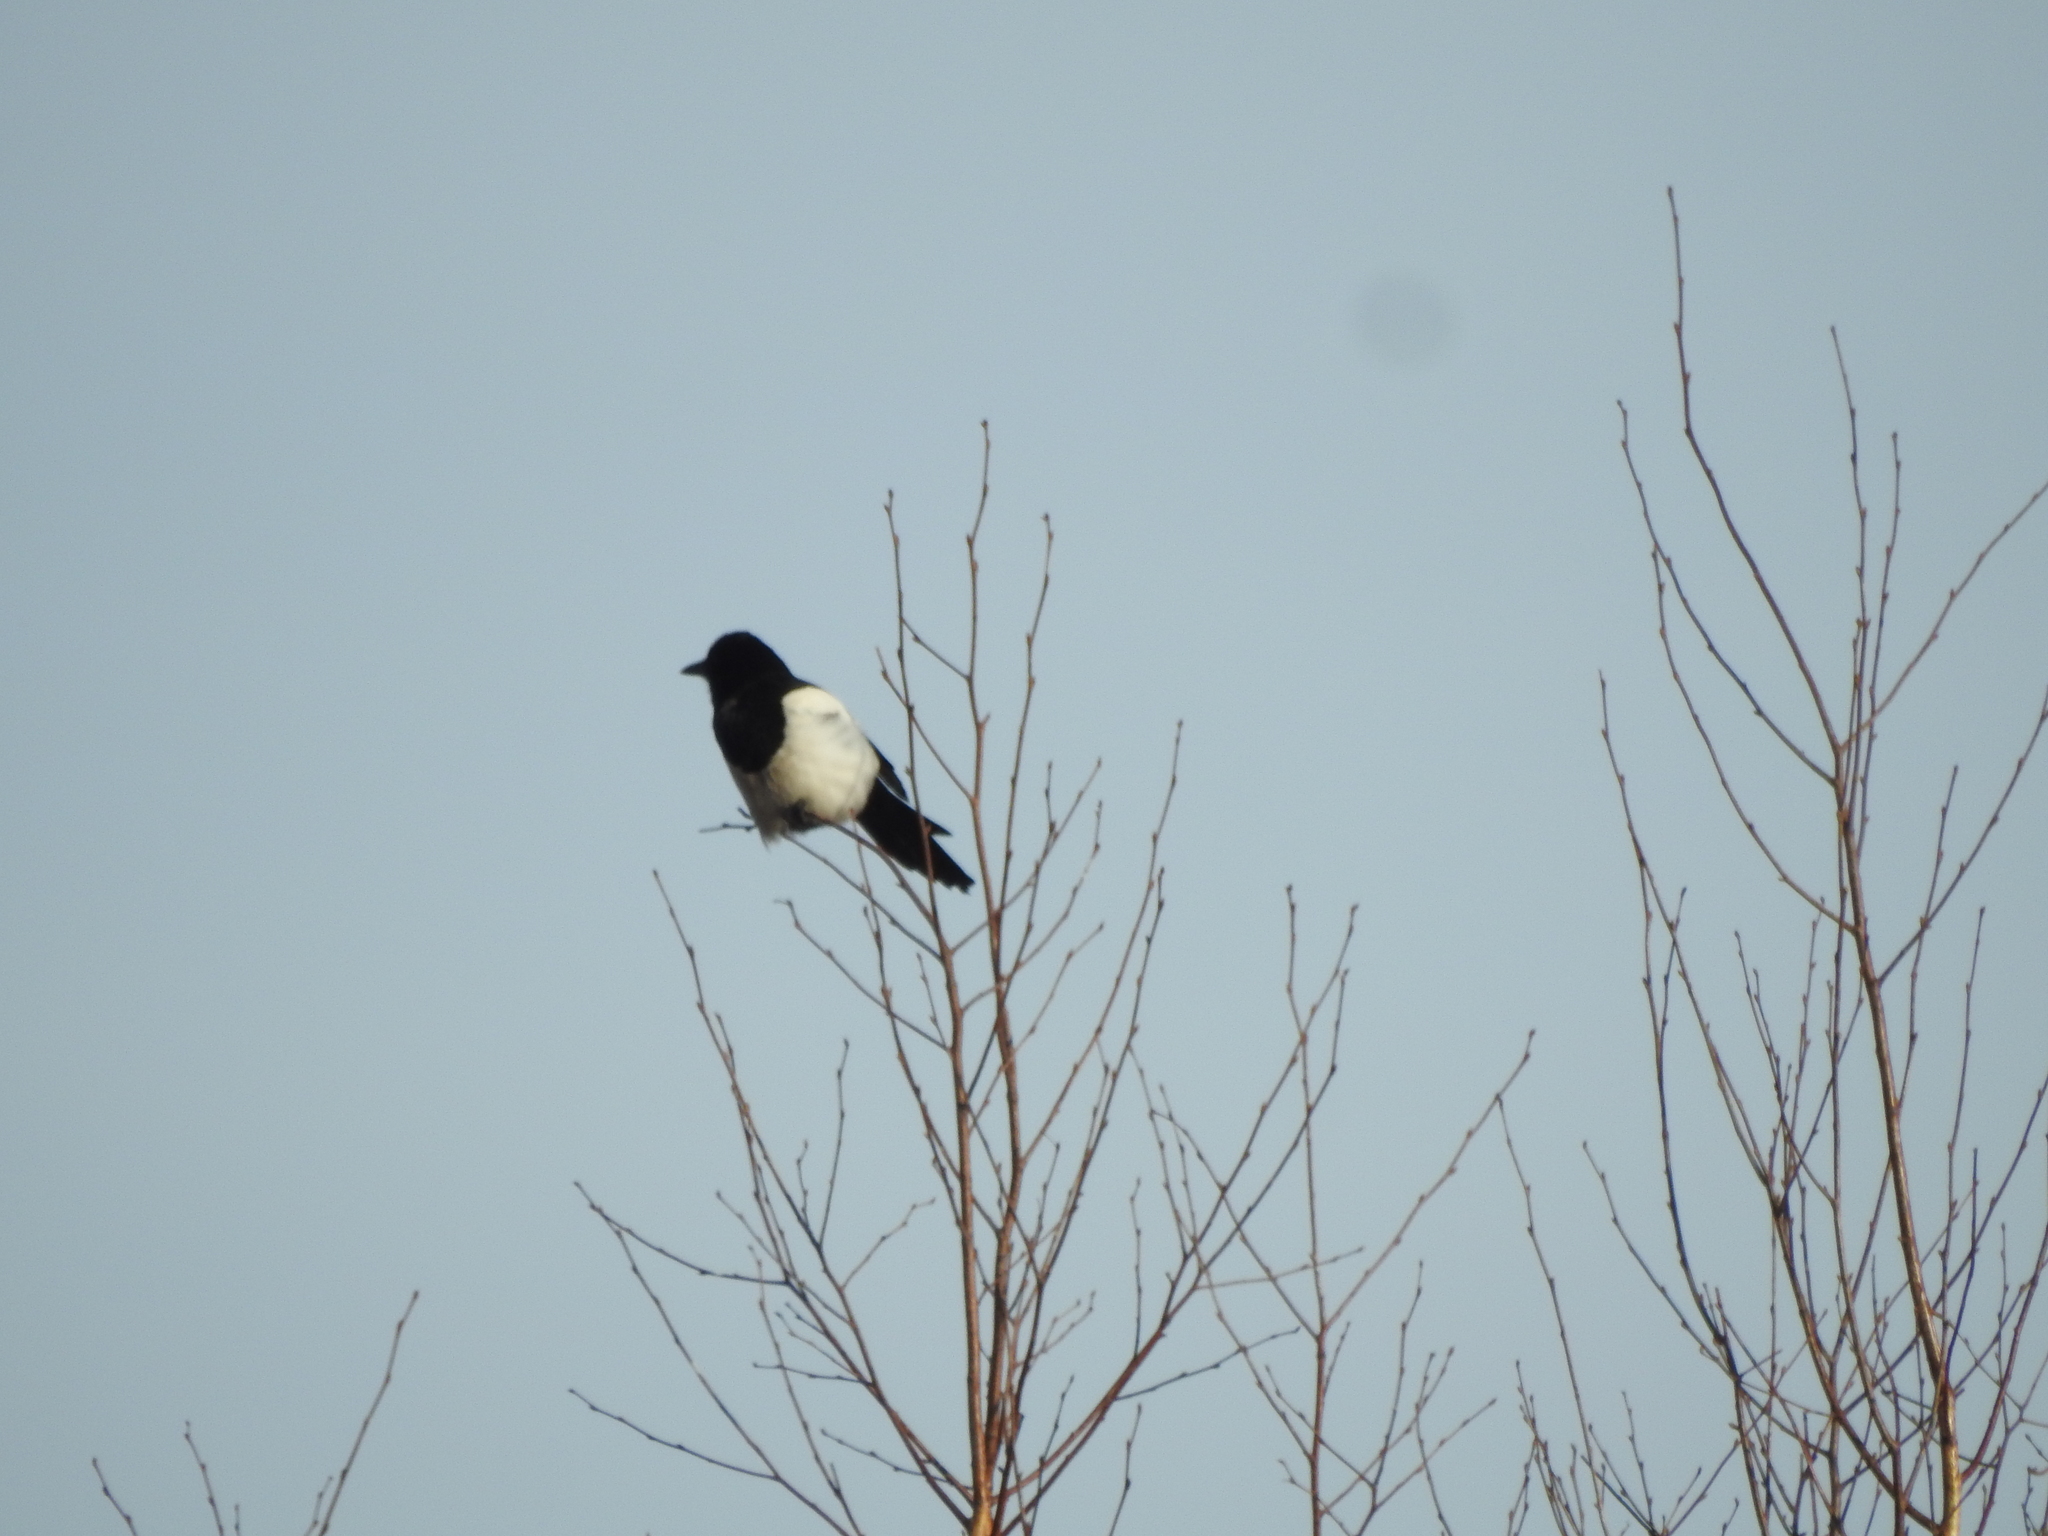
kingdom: Animalia
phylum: Chordata
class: Aves
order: Passeriformes
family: Corvidae
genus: Pica
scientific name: Pica pica
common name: Eurasian magpie
